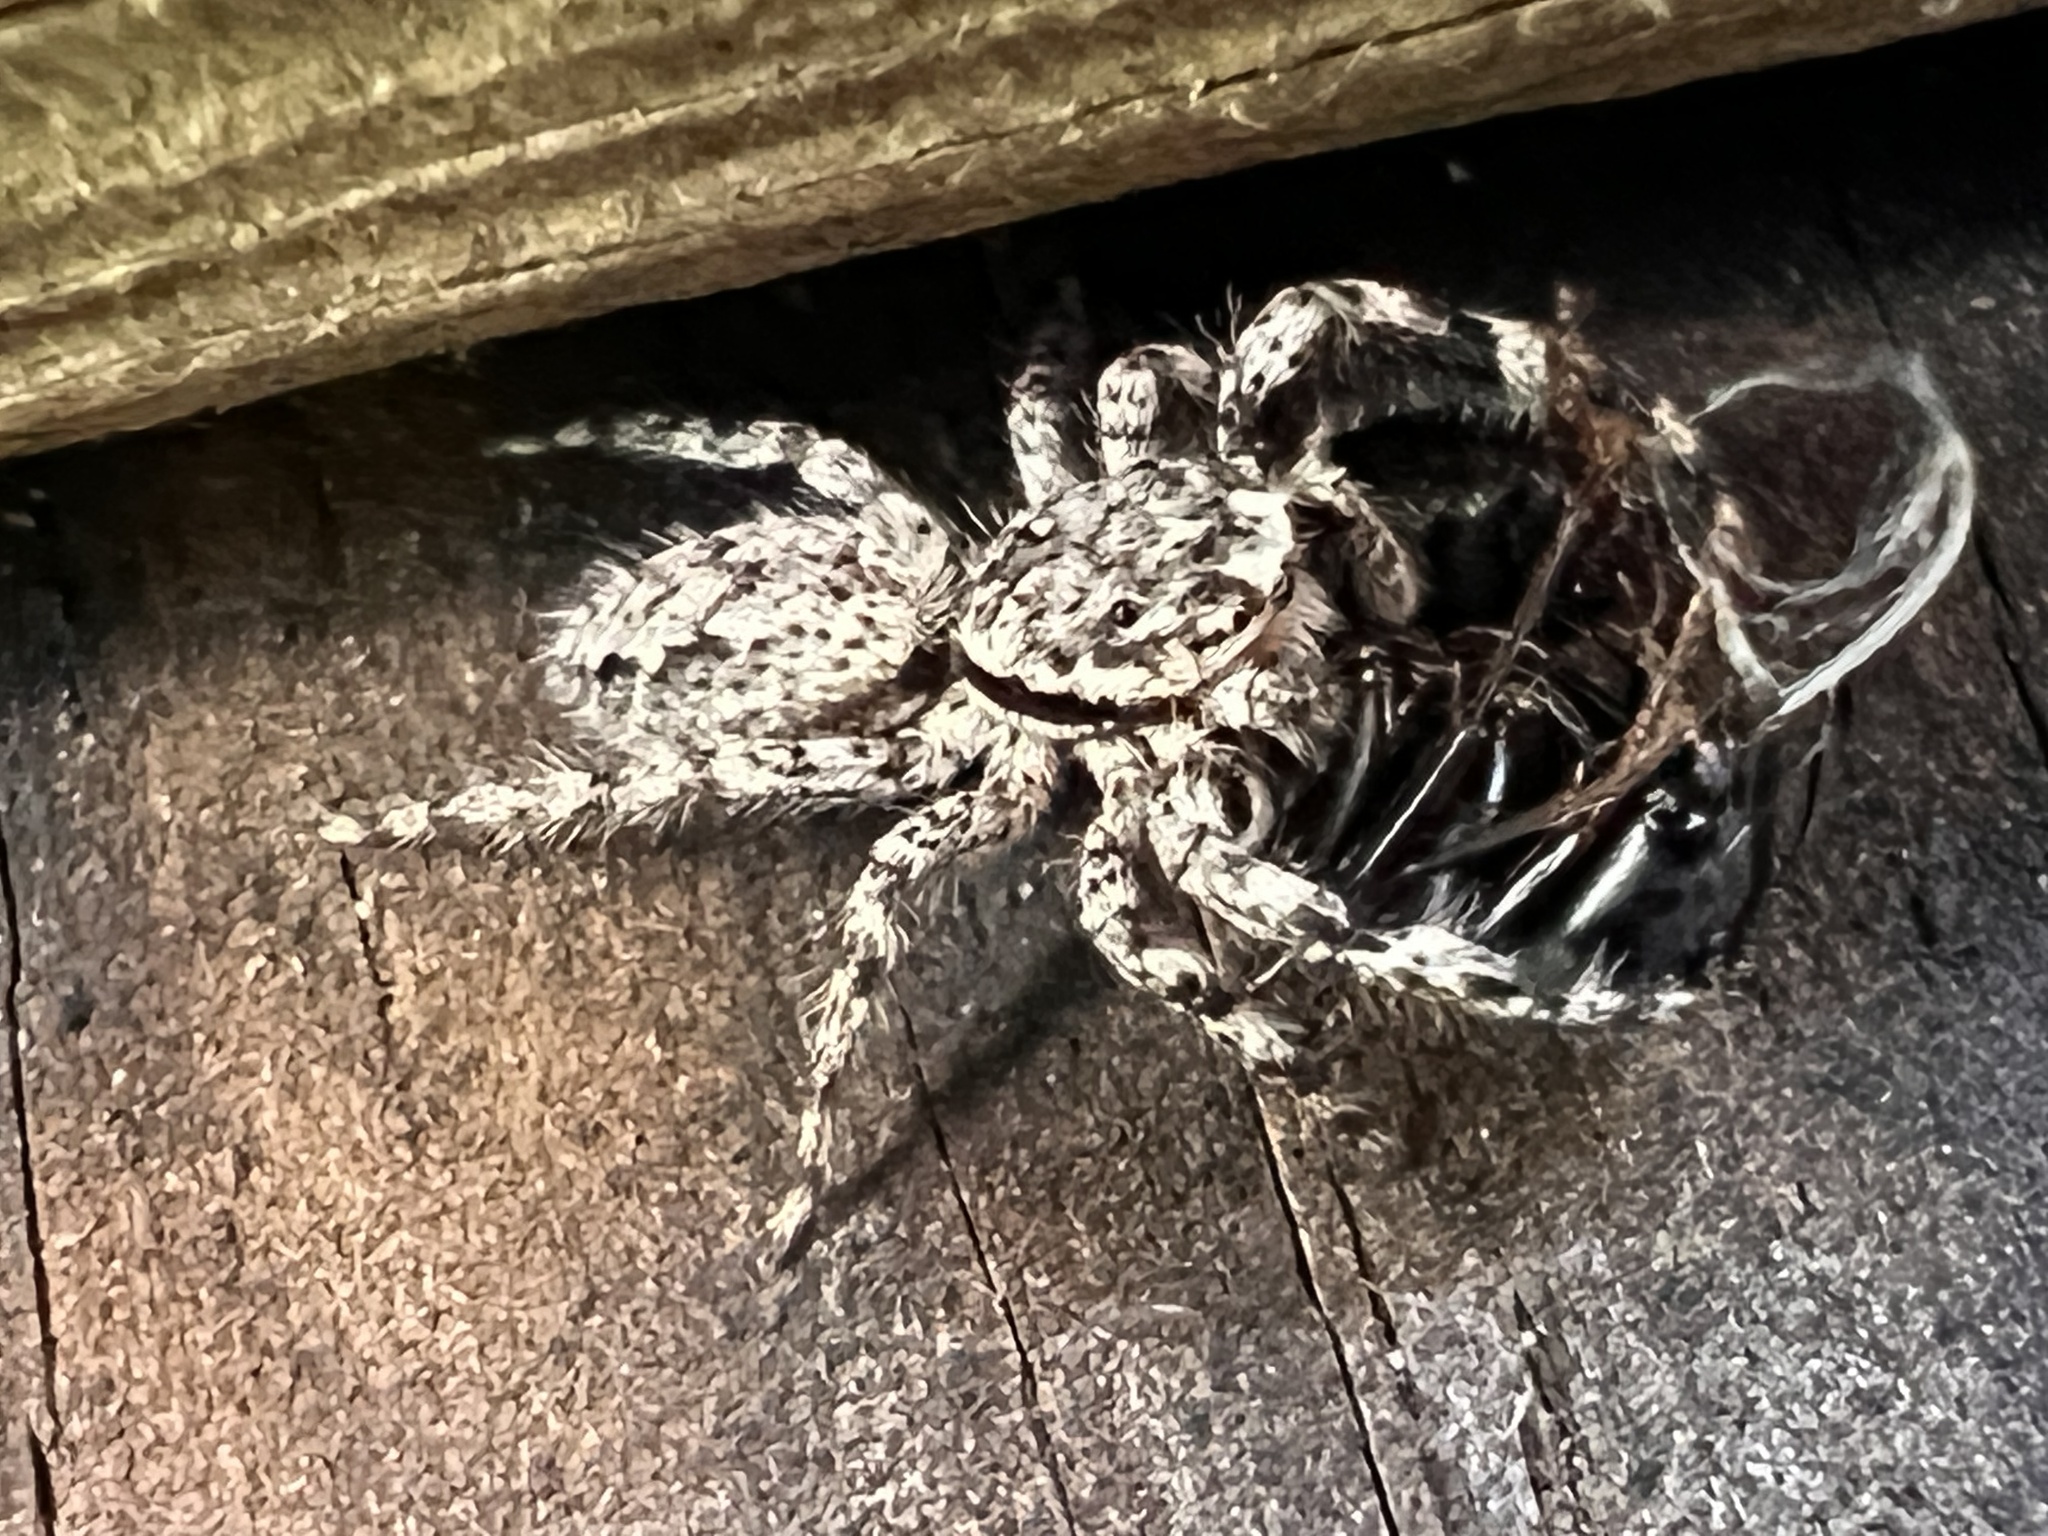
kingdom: Animalia
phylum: Arthropoda
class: Arachnida
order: Araneae
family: Salticidae
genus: Platycryptus
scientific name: Platycryptus undatus
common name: Tan jumping spider
